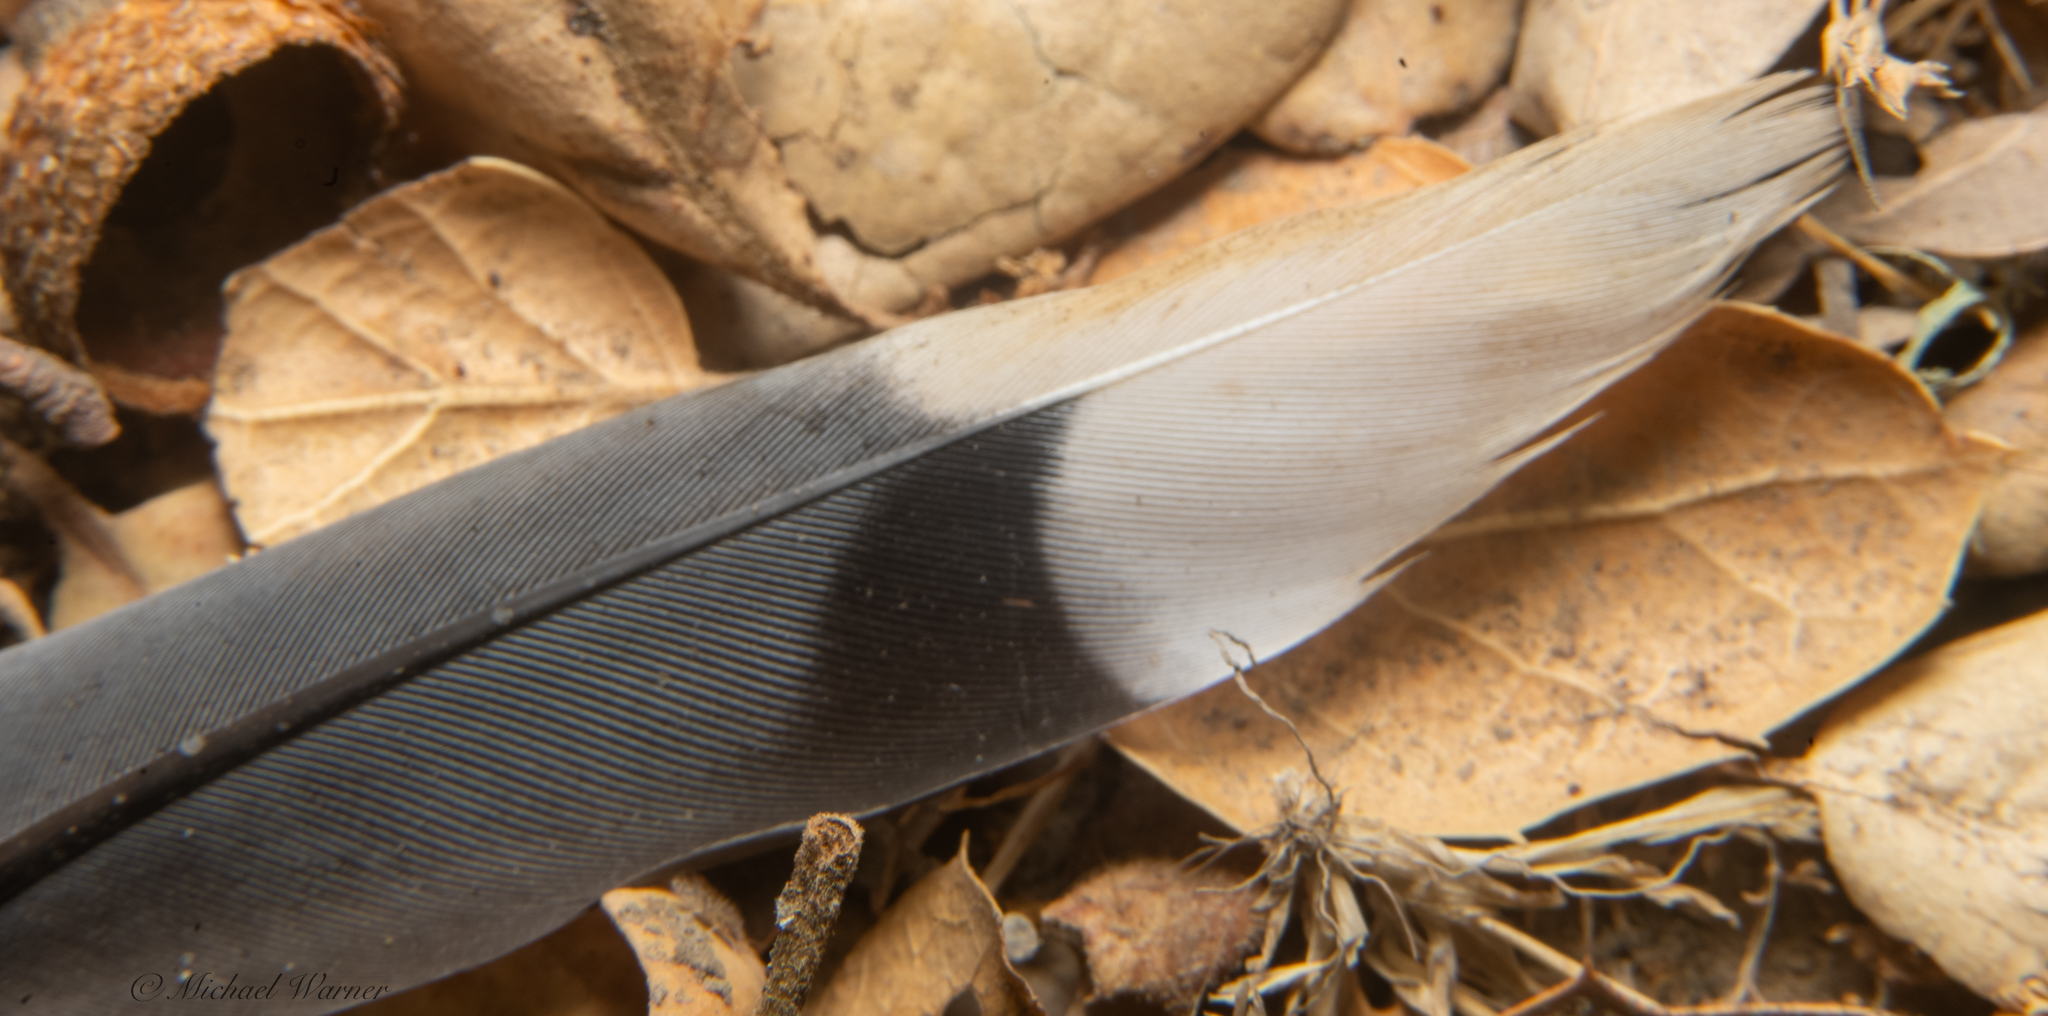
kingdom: Animalia
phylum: Chordata
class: Aves
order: Columbiformes
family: Columbidae
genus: Zenaida
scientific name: Zenaida macroura
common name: Mourning dove
